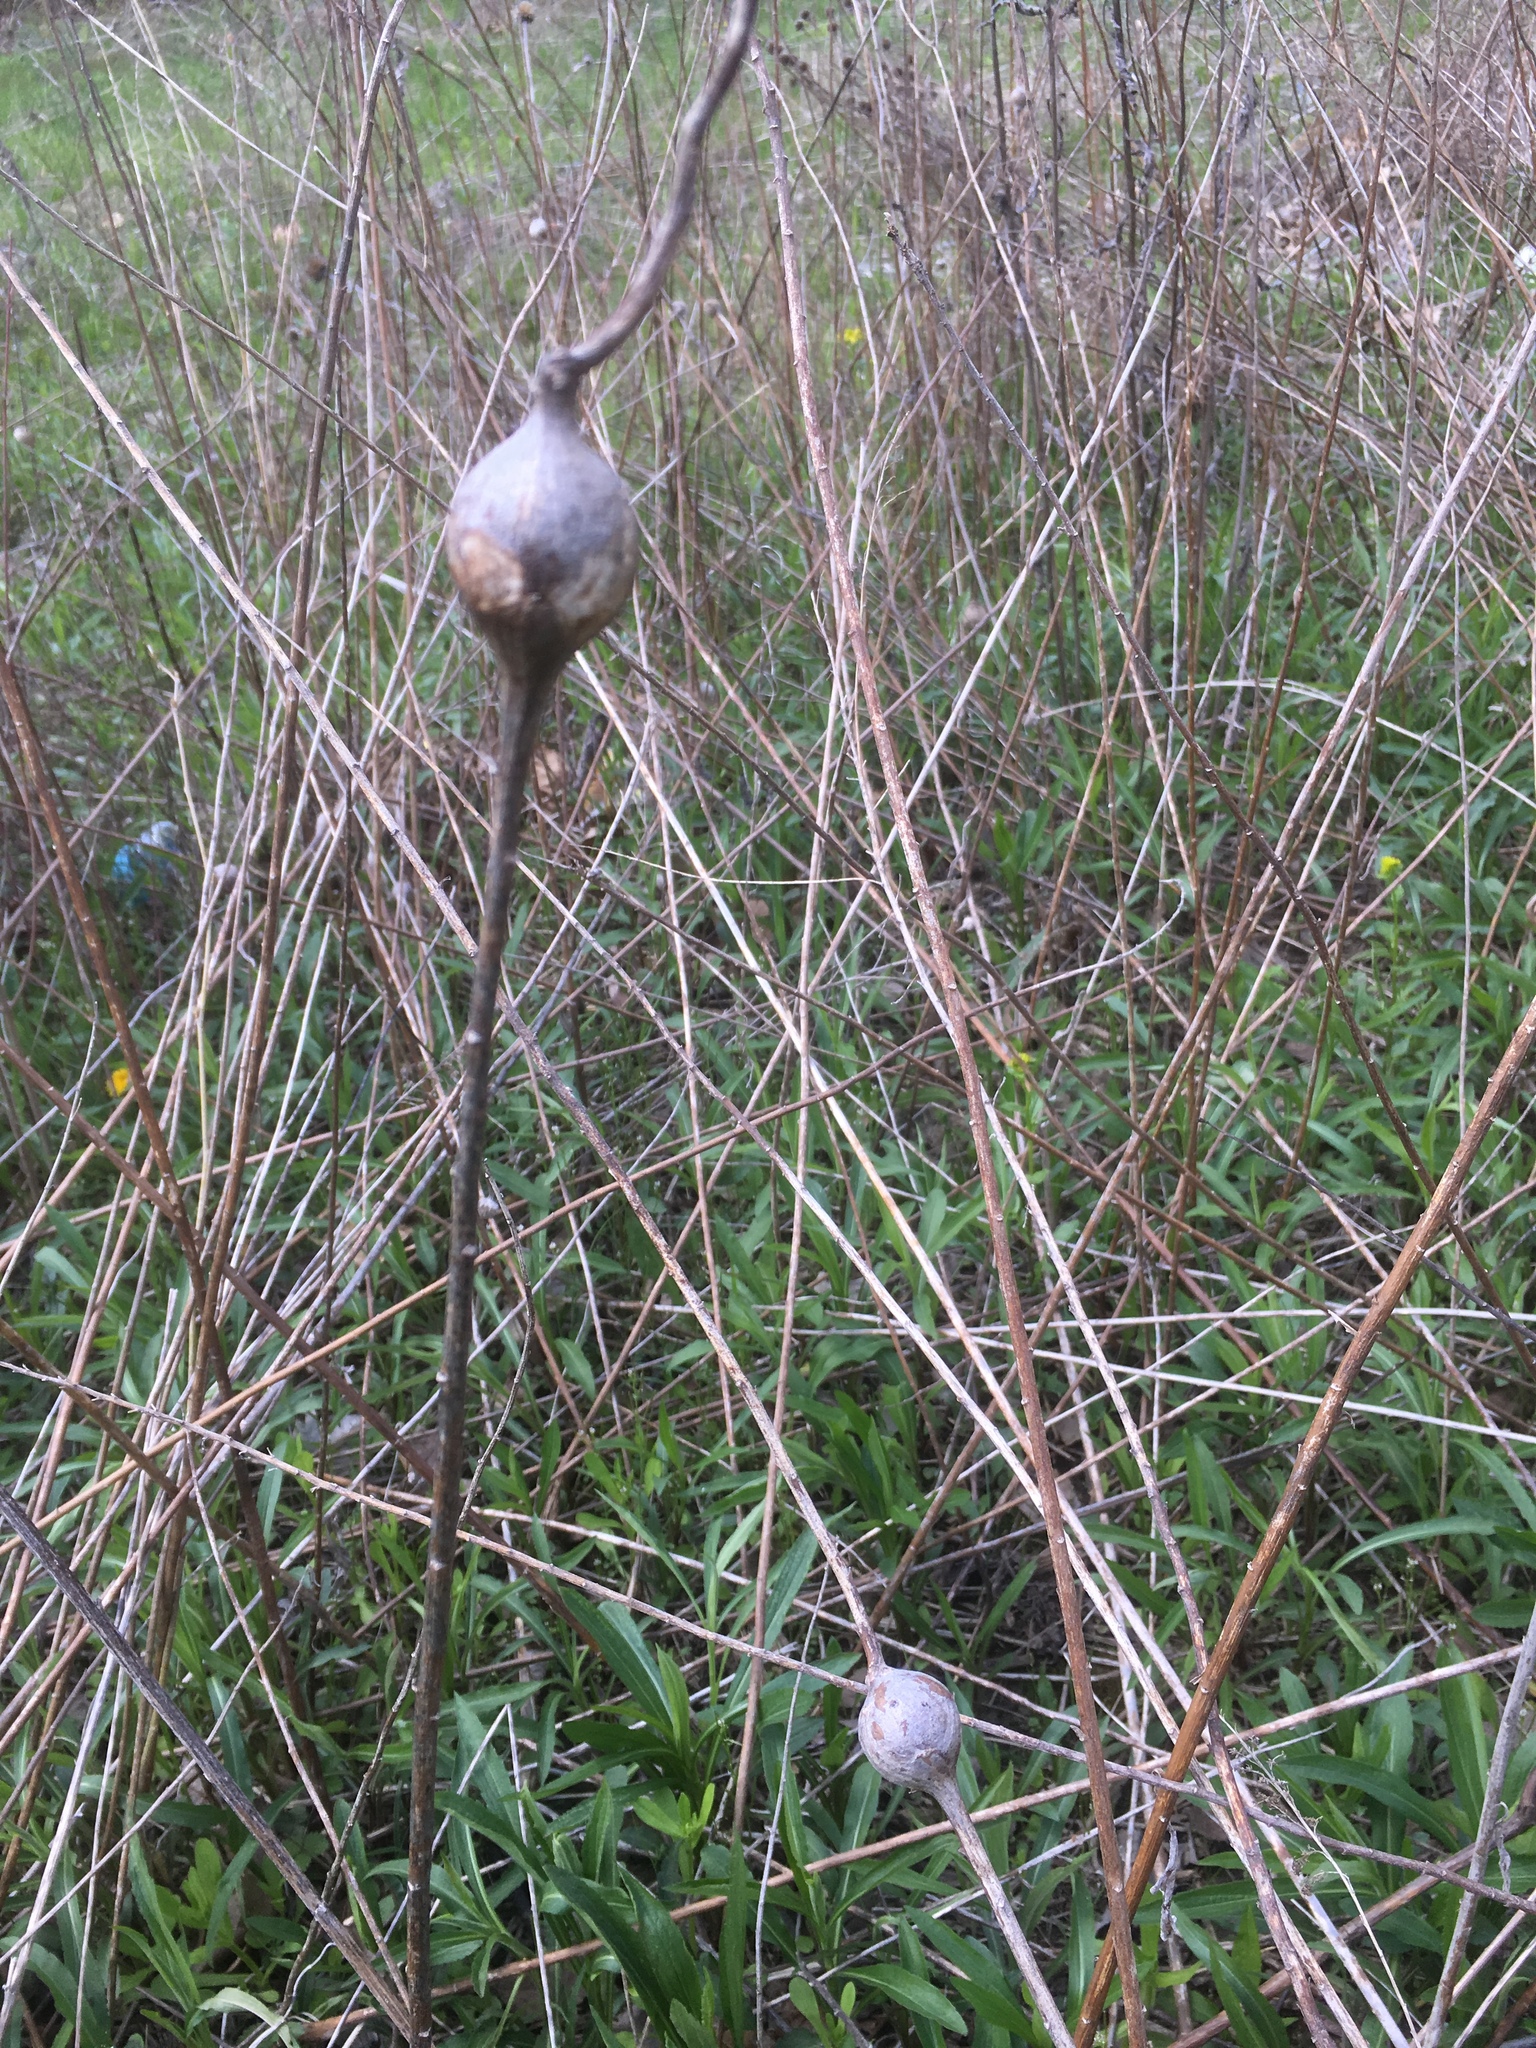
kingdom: Animalia
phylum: Arthropoda
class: Insecta
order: Diptera
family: Tephritidae
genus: Eurosta
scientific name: Eurosta solidaginis
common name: Goldenrod gall fly
